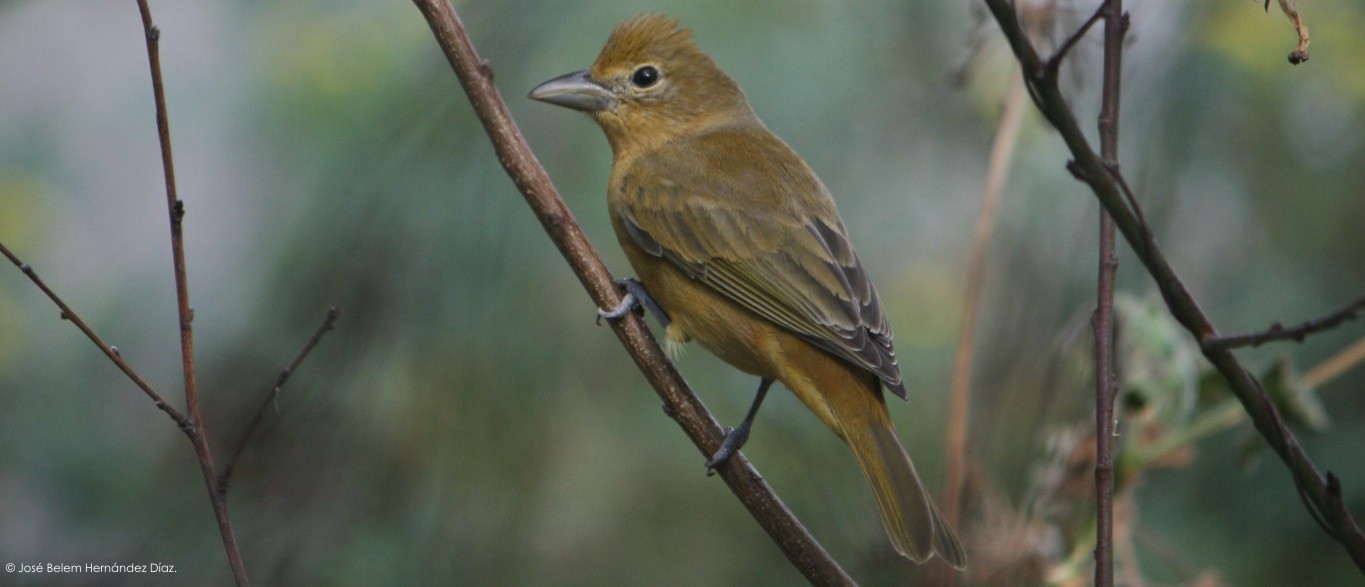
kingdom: Animalia
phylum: Chordata
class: Aves
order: Passeriformes
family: Cardinalidae
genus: Piranga
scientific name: Piranga rubra
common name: Summer tanager
